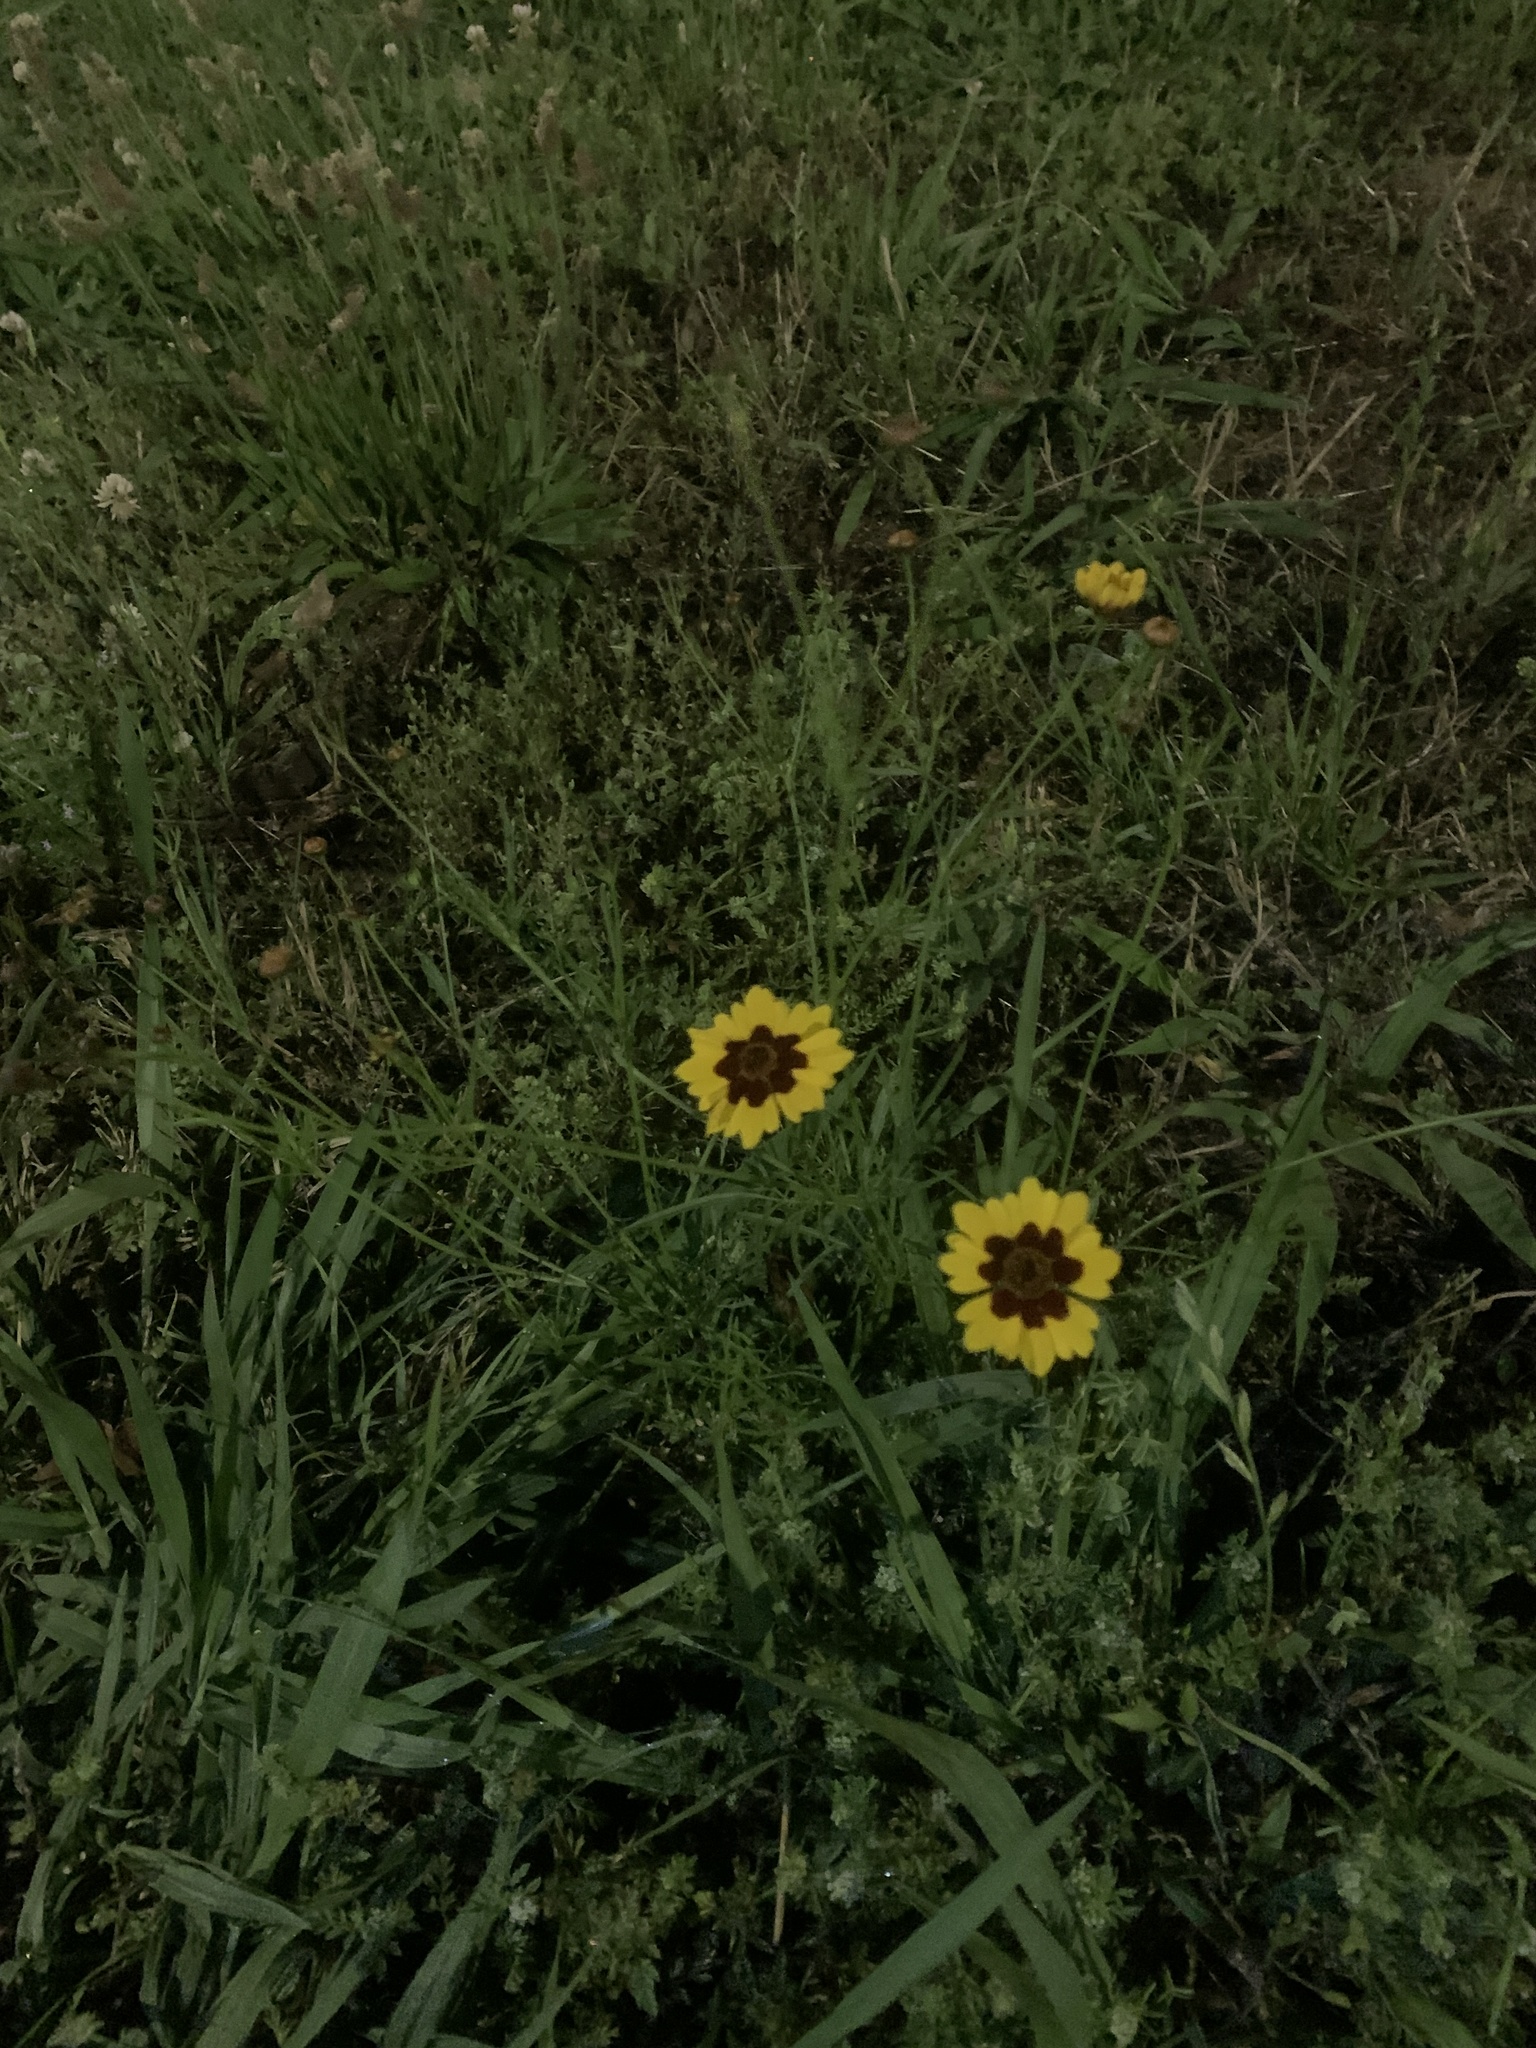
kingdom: Plantae
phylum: Tracheophyta
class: Magnoliopsida
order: Asterales
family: Asteraceae
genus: Coreopsis
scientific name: Coreopsis tinctoria
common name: Garden tickseed
